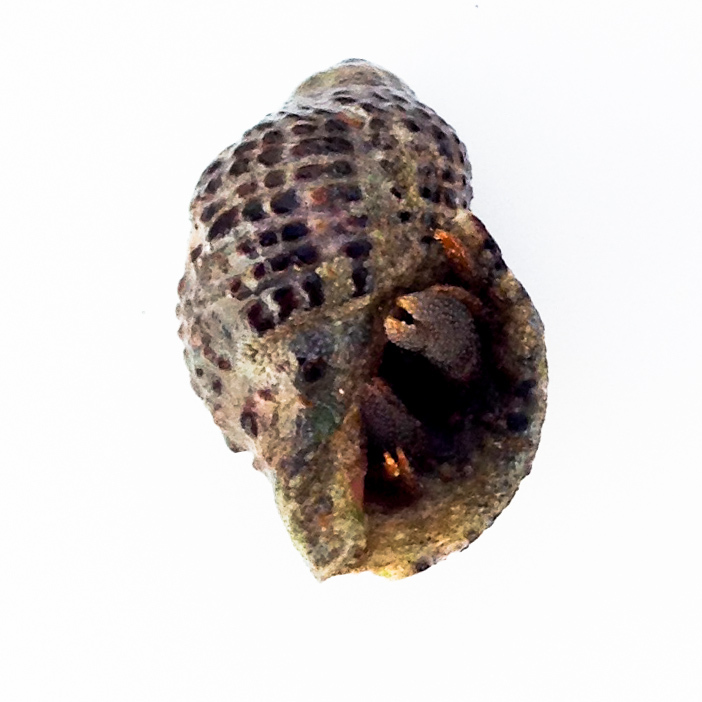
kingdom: Animalia
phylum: Mollusca
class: Gastropoda
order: Neogastropoda
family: Muricidae
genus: Acanthinucella
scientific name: Acanthinucella punctulata
